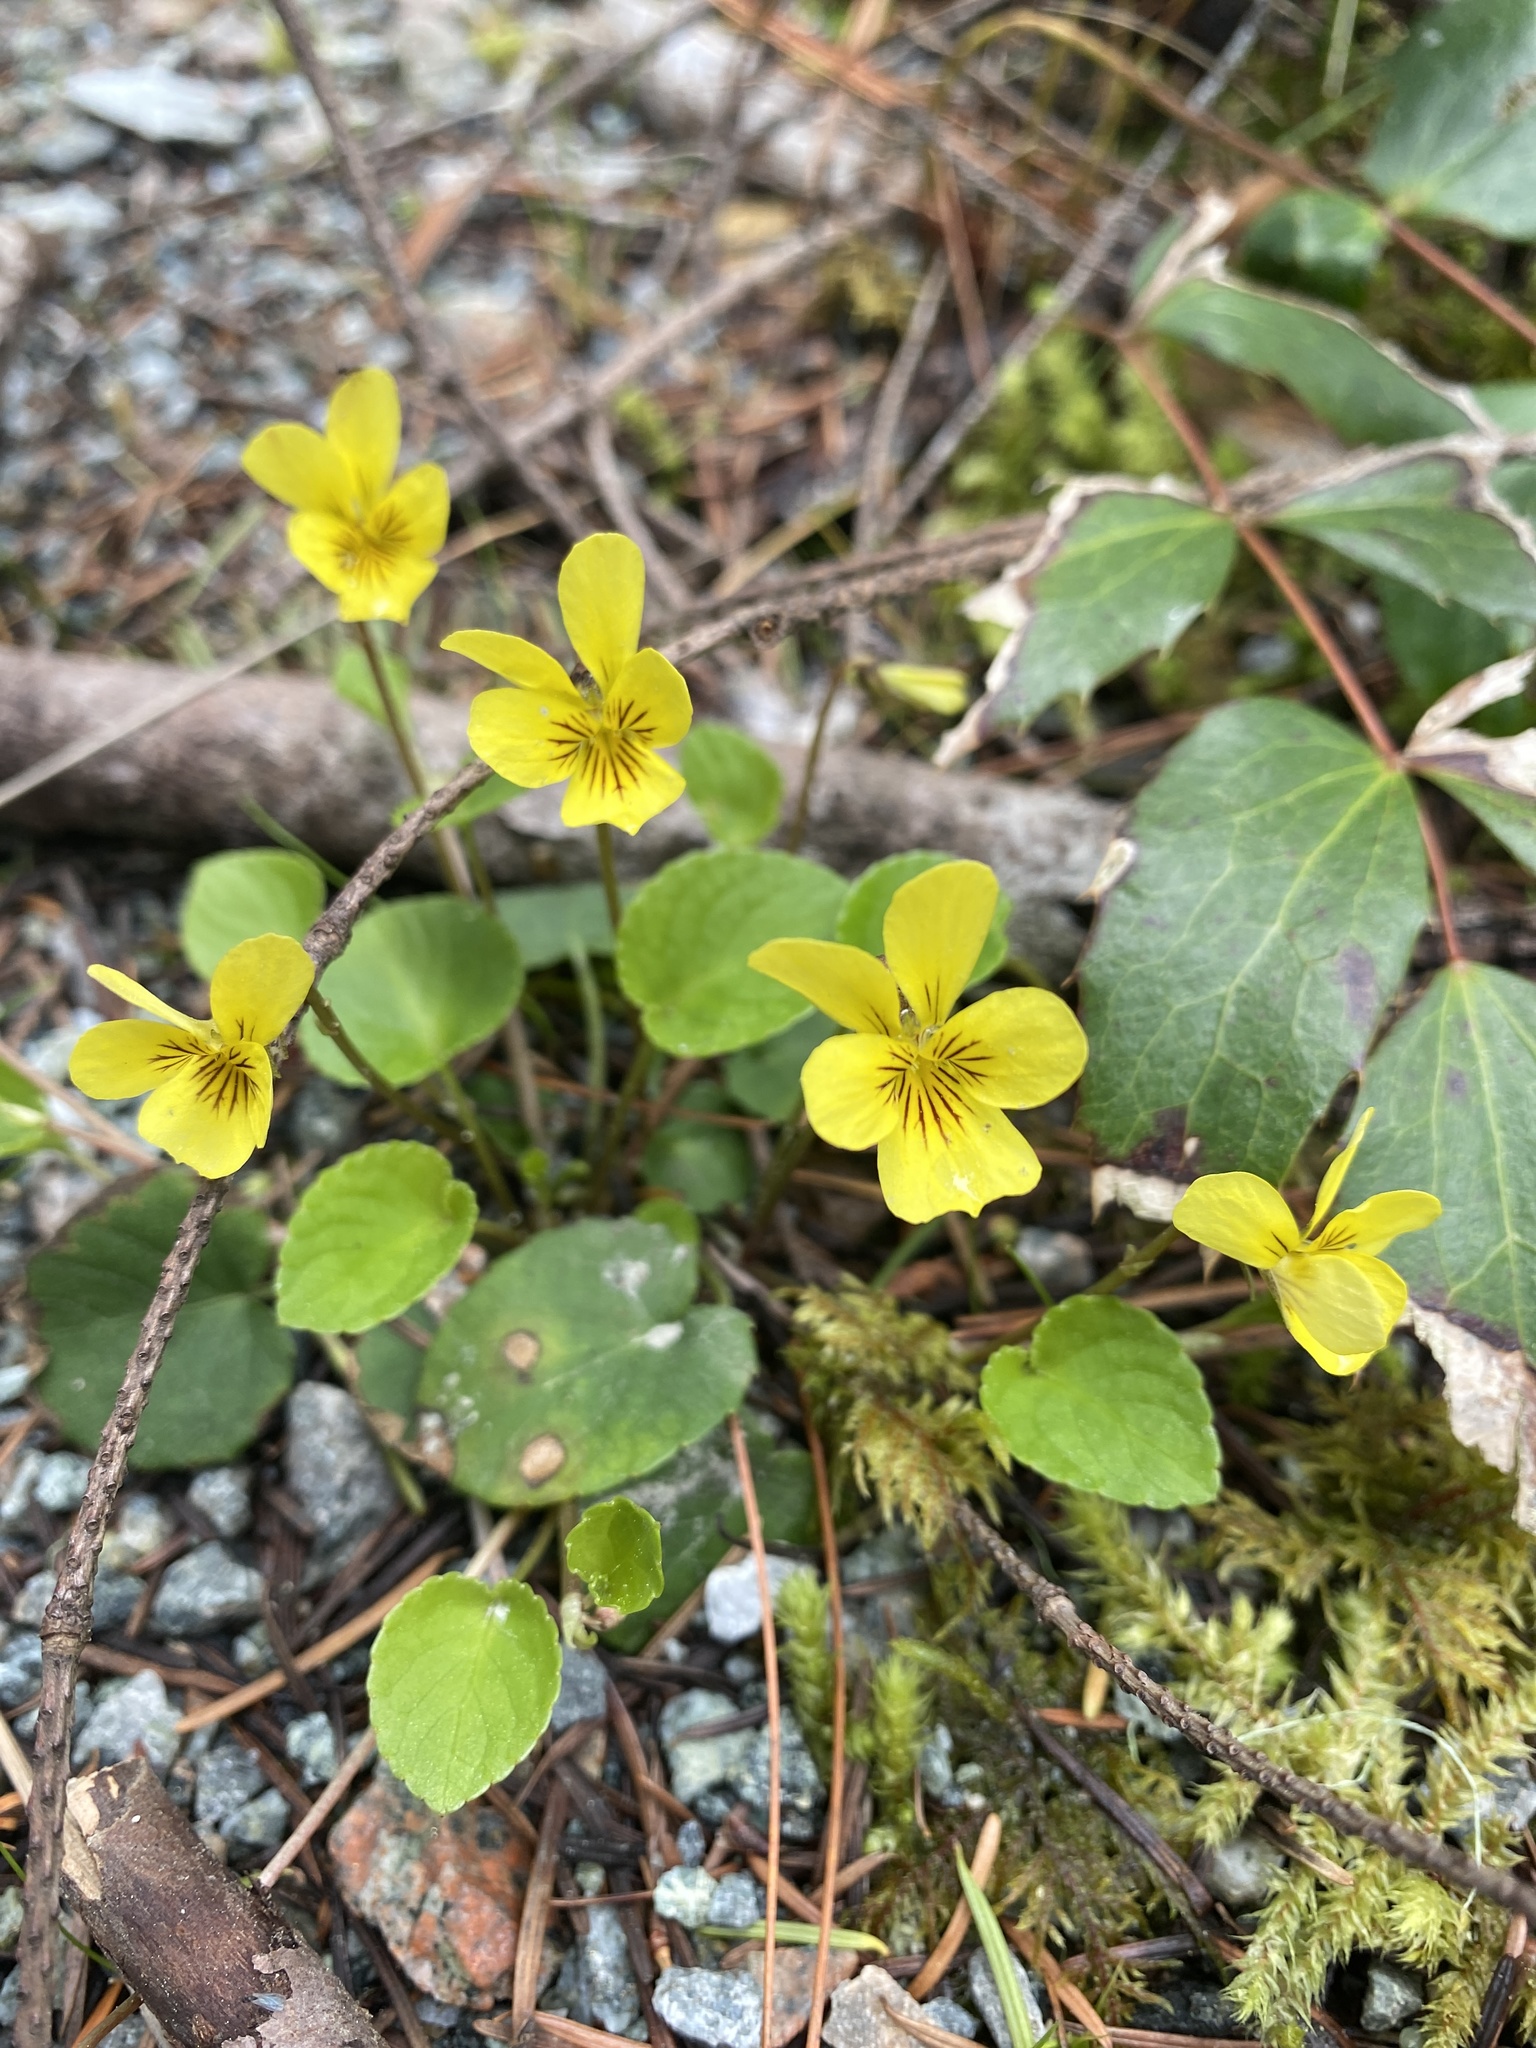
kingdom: Plantae
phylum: Tracheophyta
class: Magnoliopsida
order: Malpighiales
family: Violaceae
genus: Viola
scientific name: Viola sempervirens
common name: Evergreen violet
